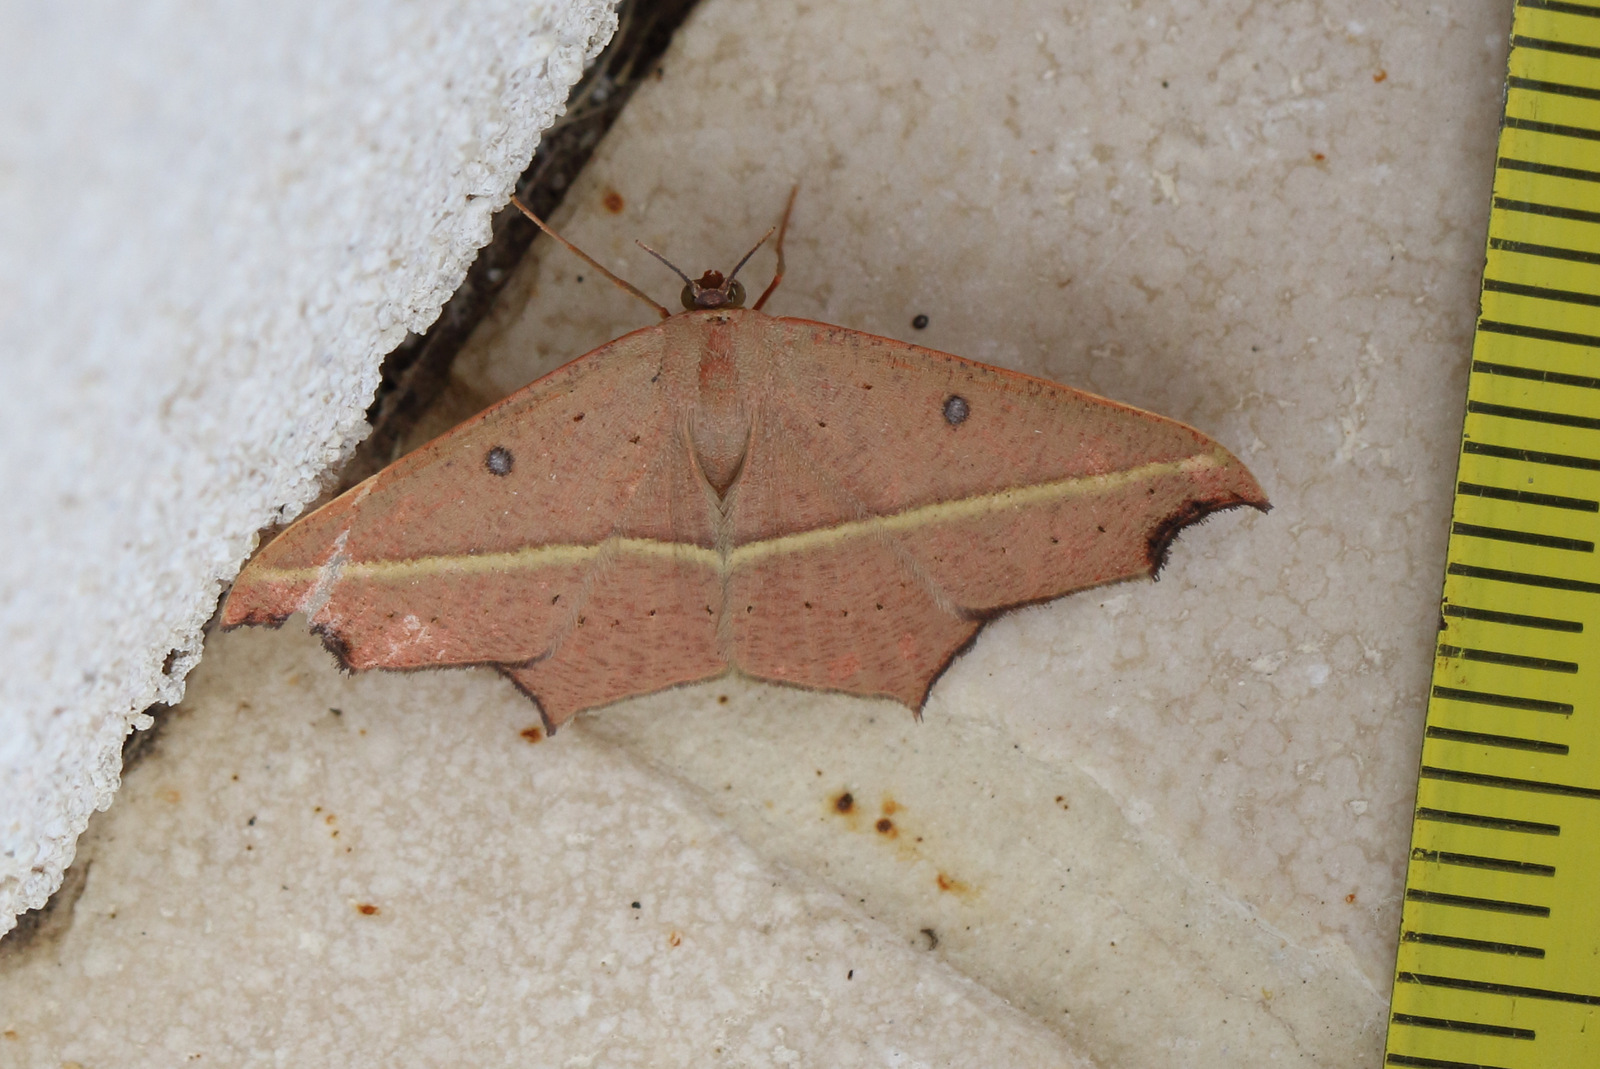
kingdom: Animalia
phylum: Arthropoda
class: Insecta
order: Lepidoptera
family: Geometridae
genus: Traminda
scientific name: Traminda rubra
